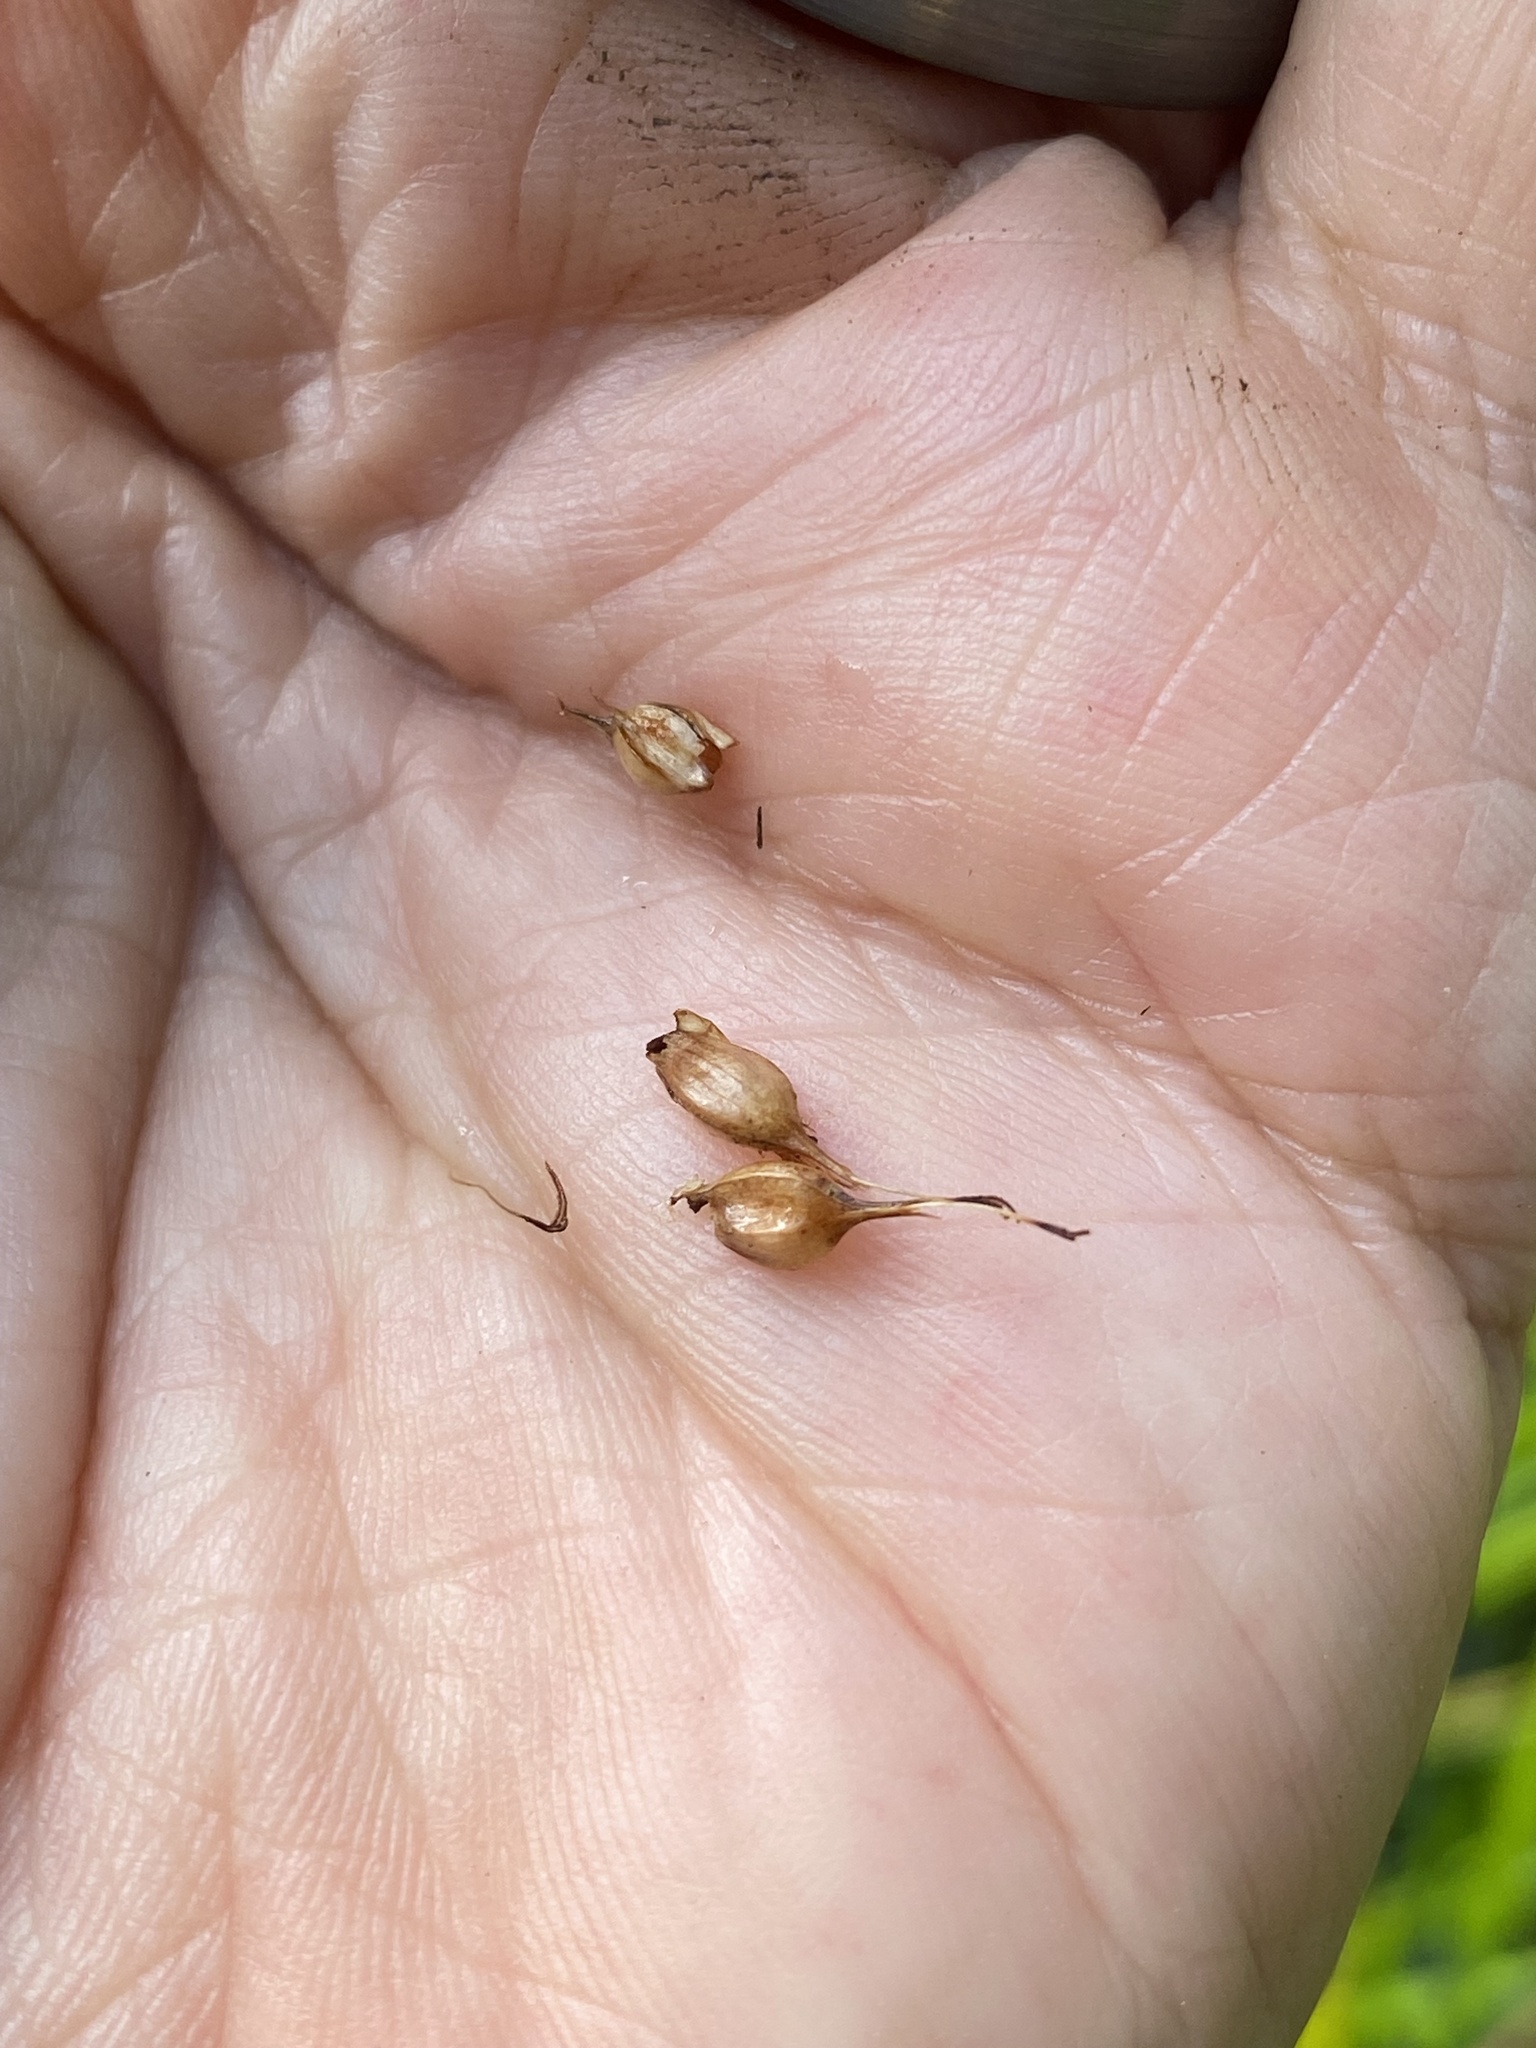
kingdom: Plantae
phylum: Tracheophyta
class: Liliopsida
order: Poales
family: Cyperaceae
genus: Carex
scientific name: Carex utriculata
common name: Beaked sedge
